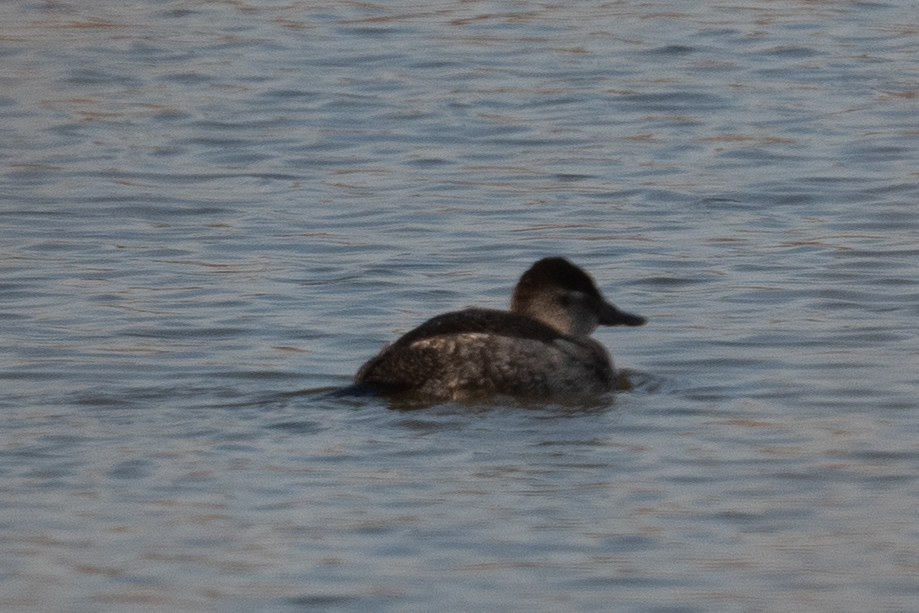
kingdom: Animalia
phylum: Chordata
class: Aves
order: Anseriformes
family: Anatidae
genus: Oxyura
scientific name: Oxyura jamaicensis
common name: Ruddy duck
